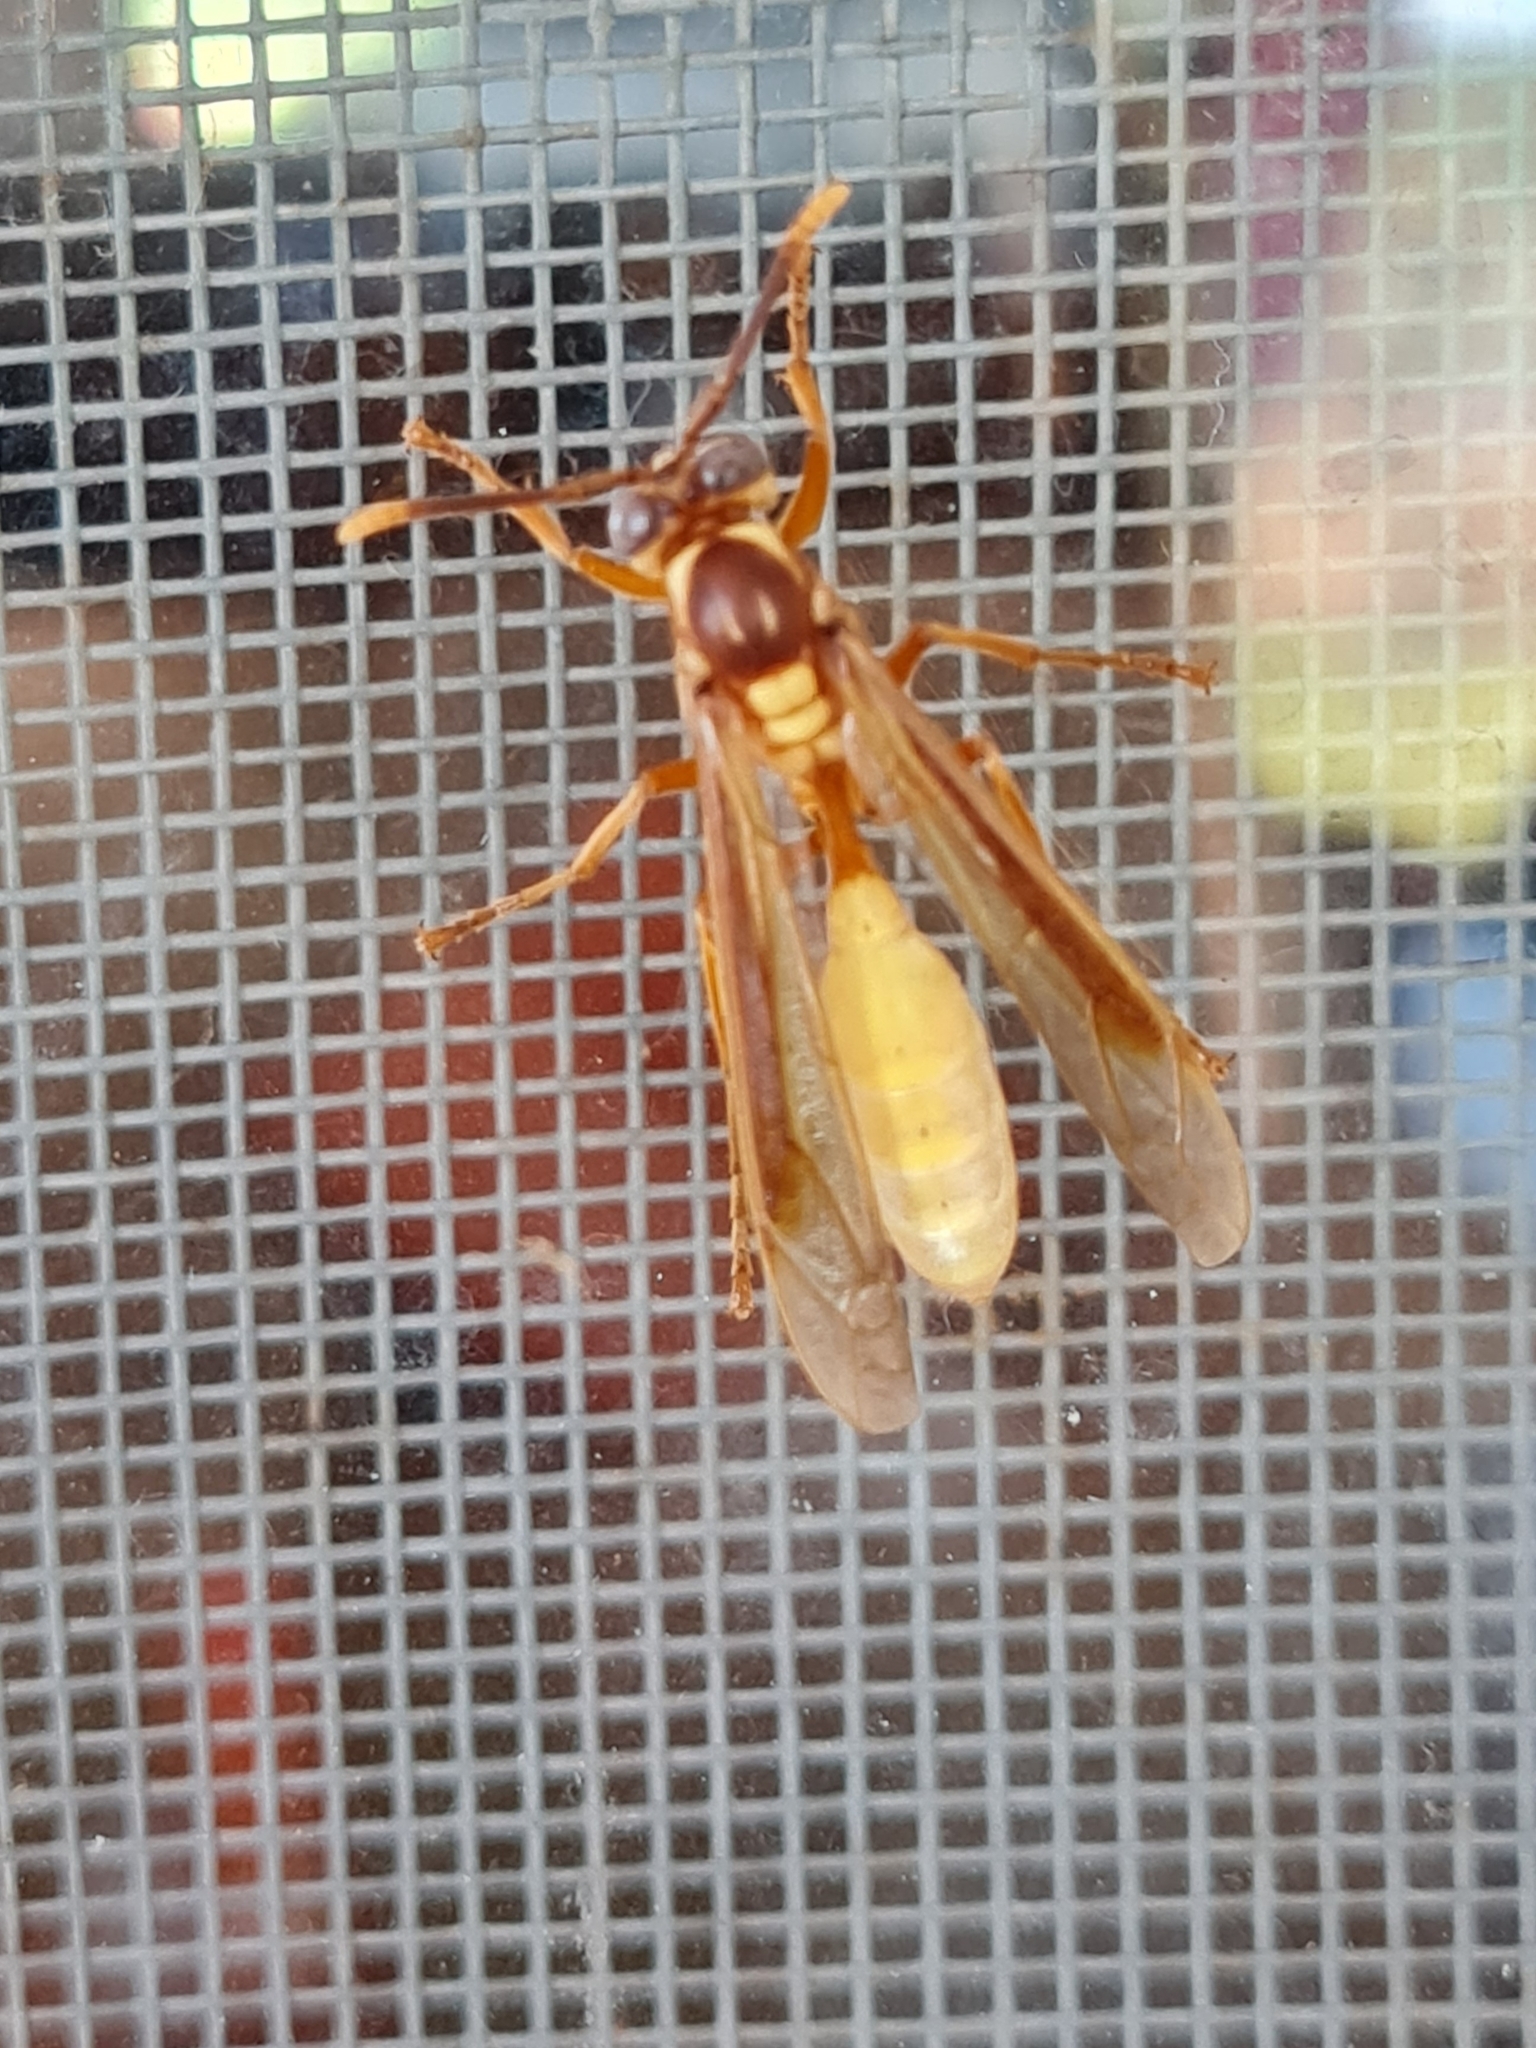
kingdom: Animalia
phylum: Arthropoda
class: Insecta
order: Hymenoptera
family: Vespidae
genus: Apoica
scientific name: Apoica pallens
